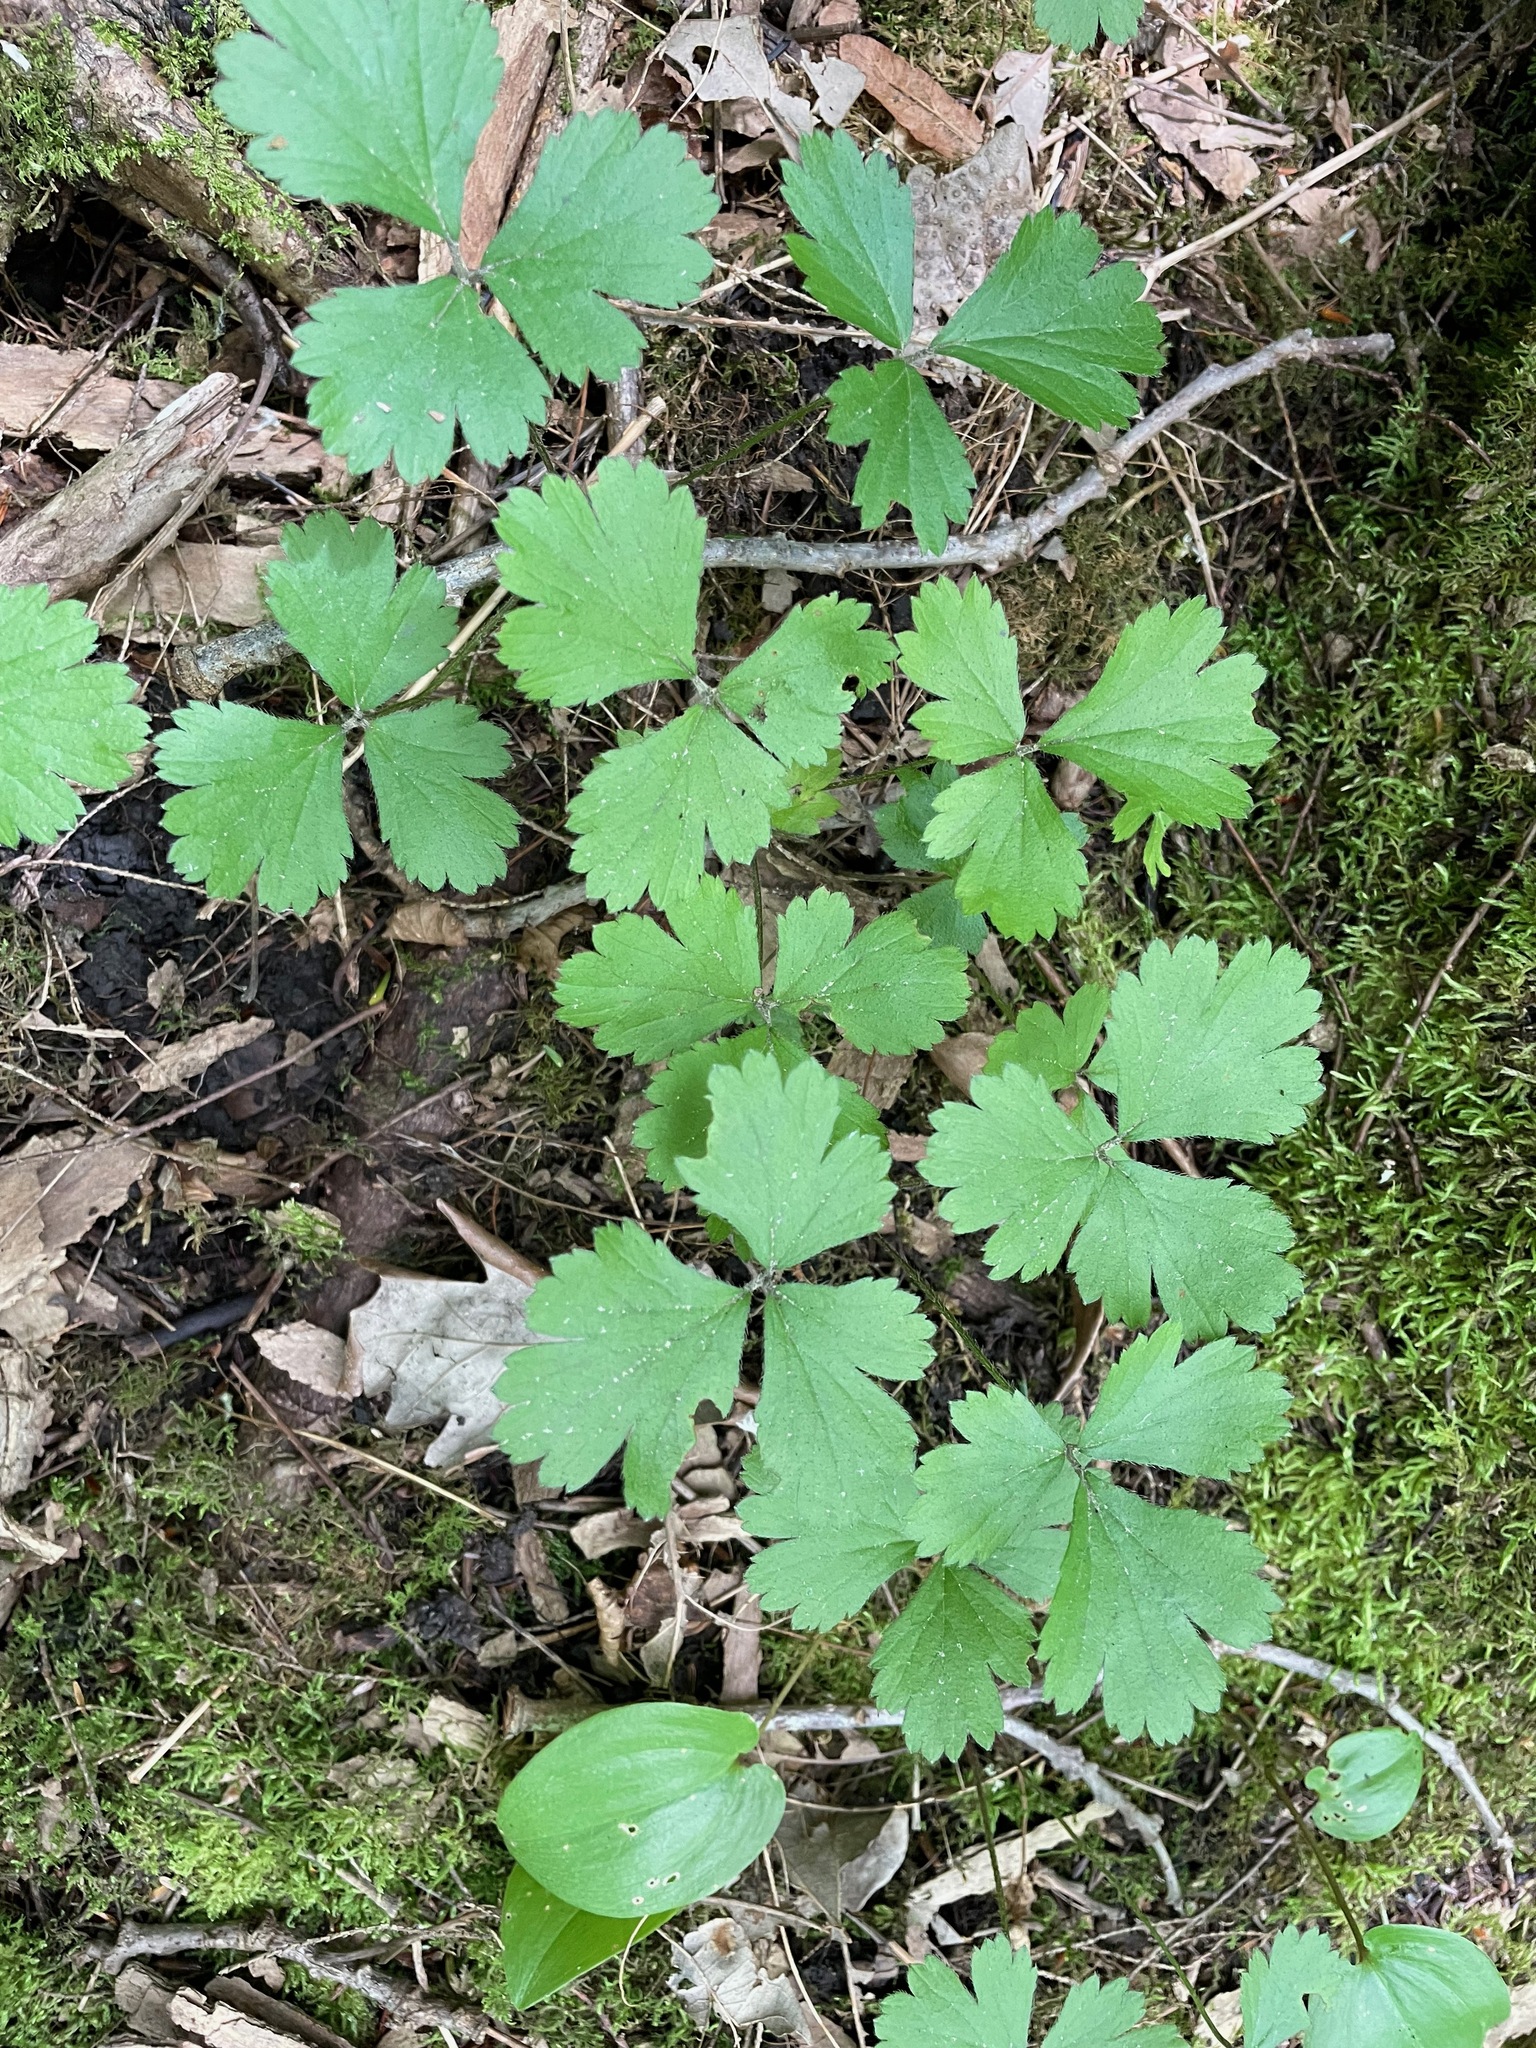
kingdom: Plantae
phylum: Tracheophyta
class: Magnoliopsida
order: Rosales
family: Rosaceae
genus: Geum
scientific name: Geum fragarioides
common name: Appalachian barren strawberry
